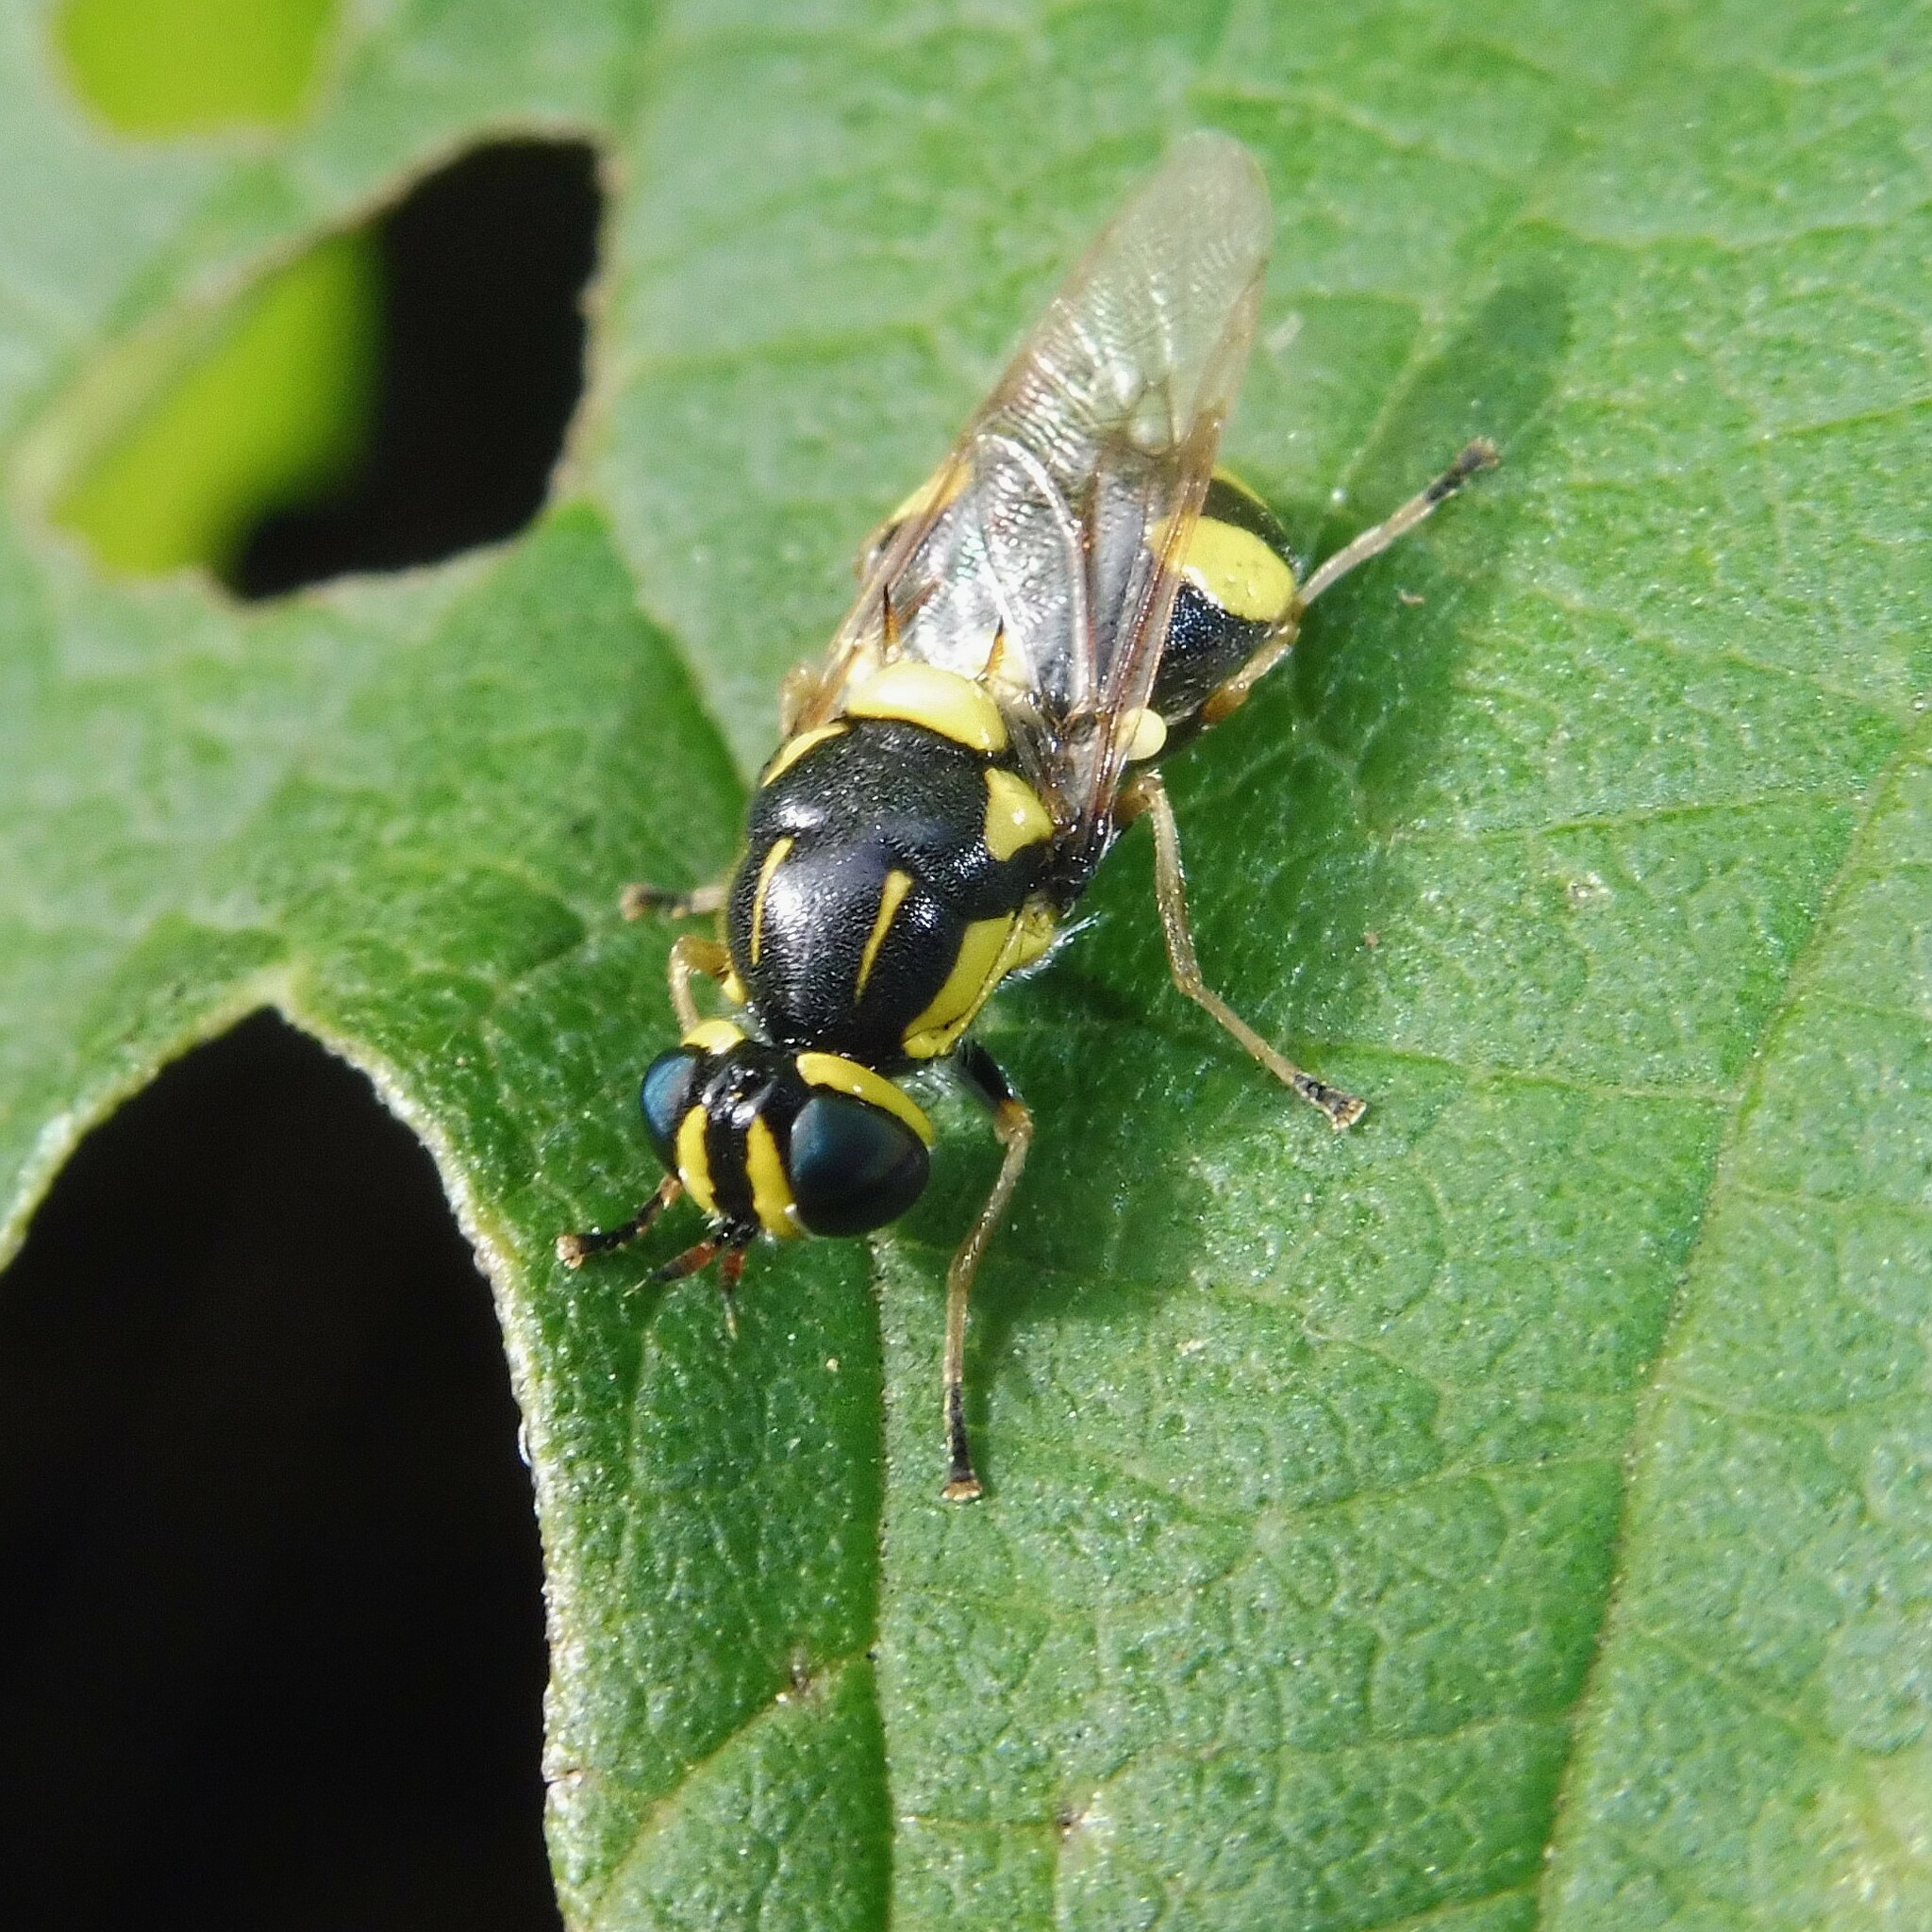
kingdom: Animalia
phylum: Arthropoda
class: Insecta
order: Diptera
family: Stratiomyidae
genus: Oxycera
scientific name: Oxycera rara
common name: Four-barred major
